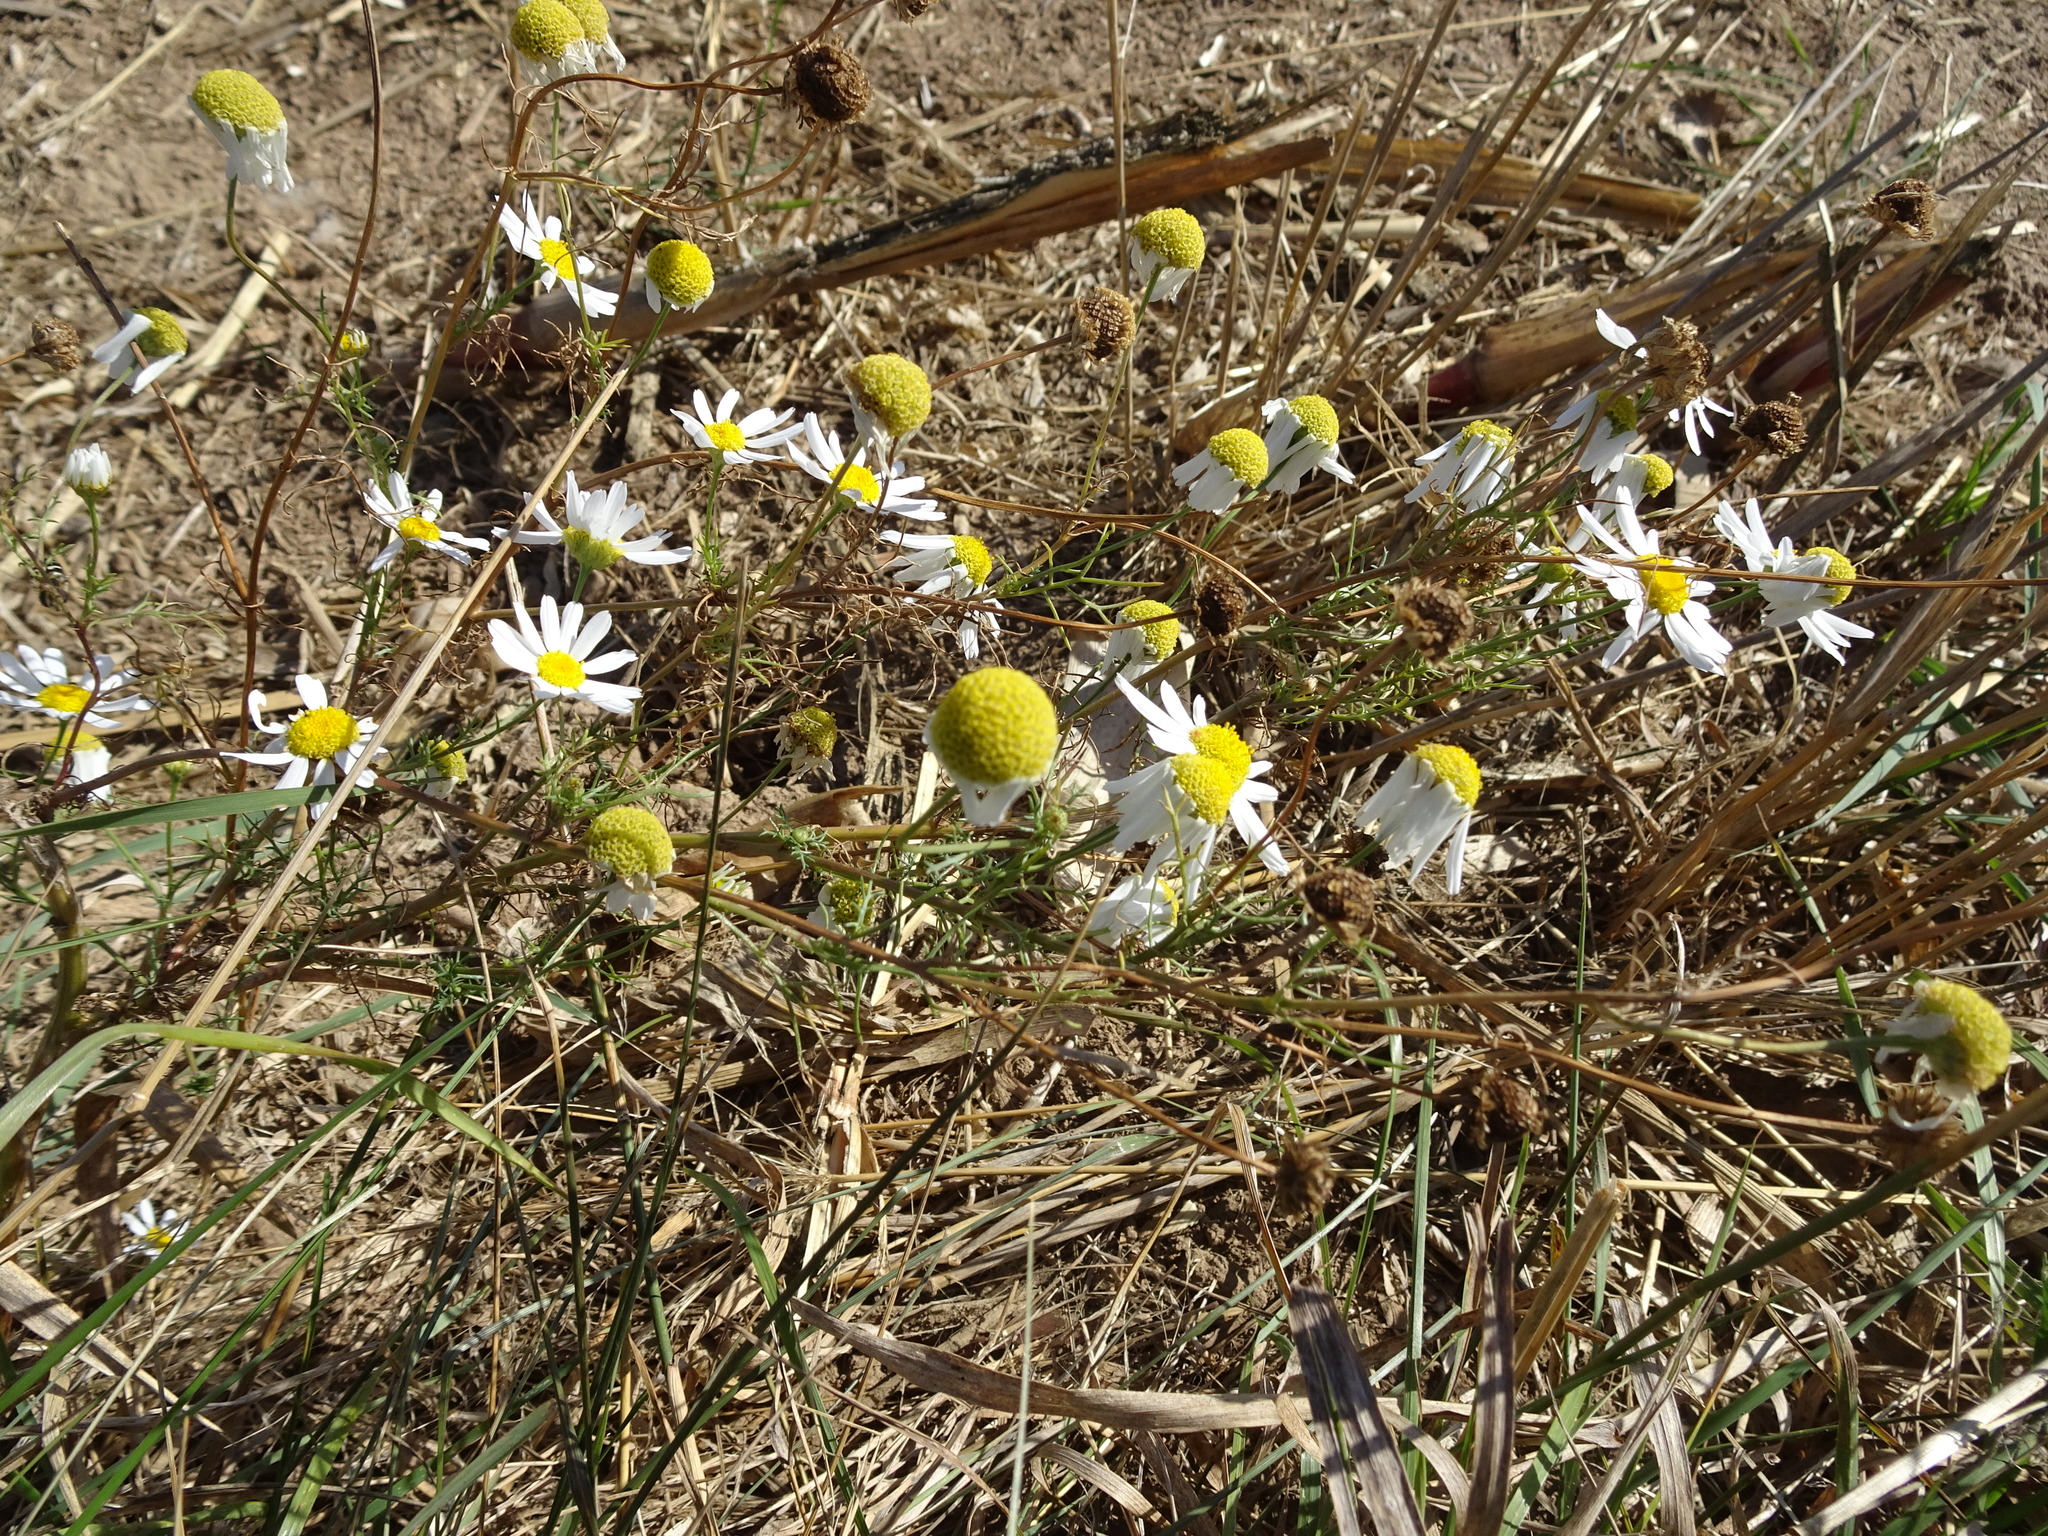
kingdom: Plantae
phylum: Tracheophyta
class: Magnoliopsida
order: Asterales
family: Asteraceae
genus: Tripleurospermum
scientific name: Tripleurospermum inodorum
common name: Scentless mayweed
